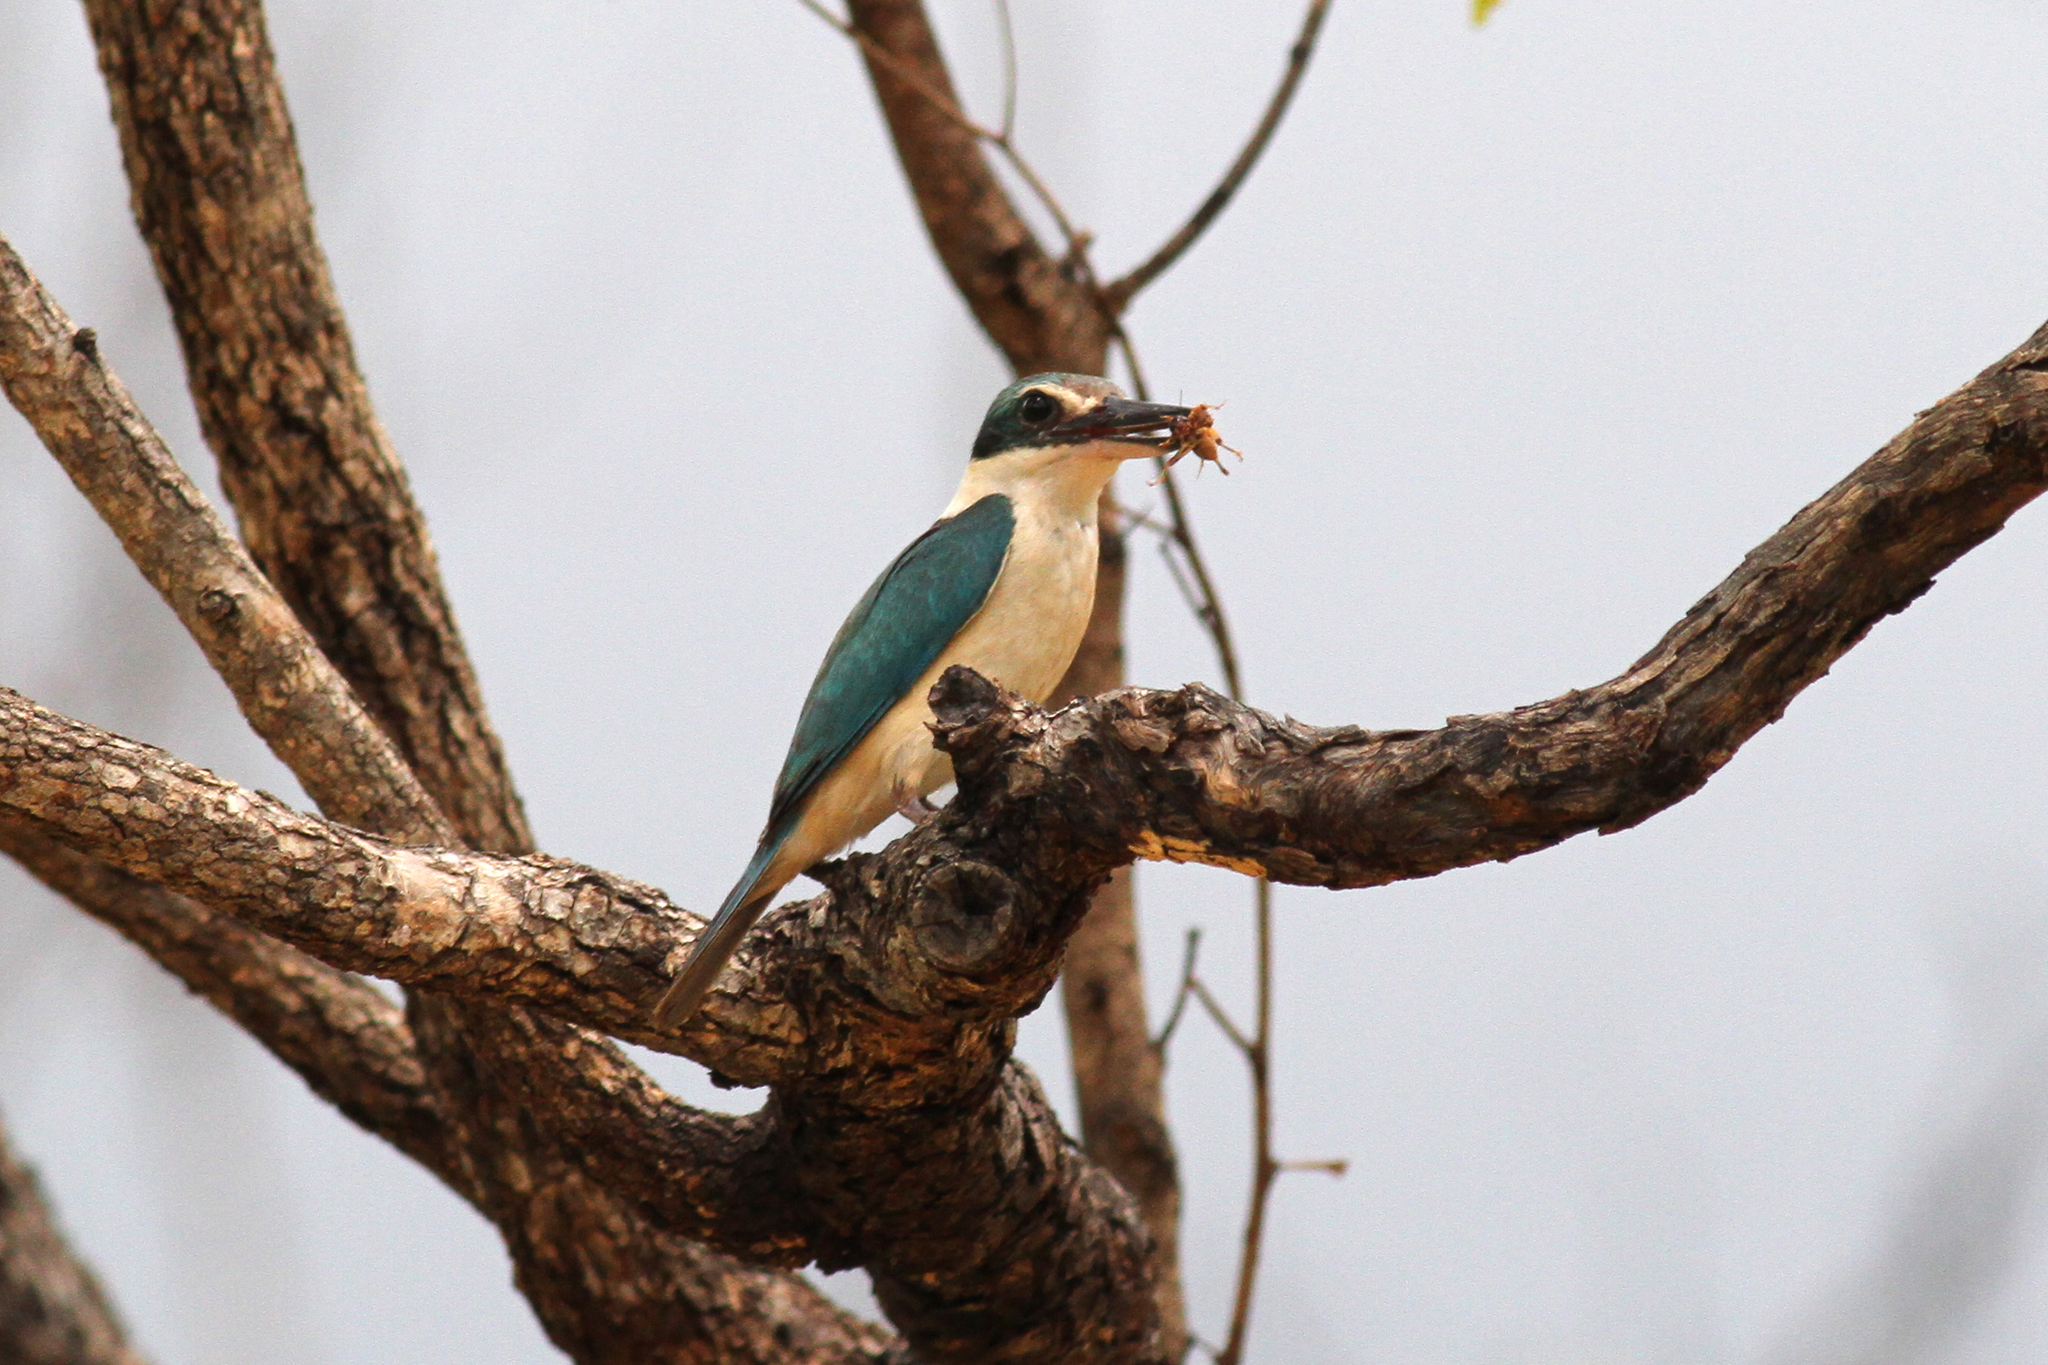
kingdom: Animalia
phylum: Chordata
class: Aves
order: Coraciiformes
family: Alcedinidae
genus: Todiramphus
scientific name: Todiramphus sanctus
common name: Sacred kingfisher
